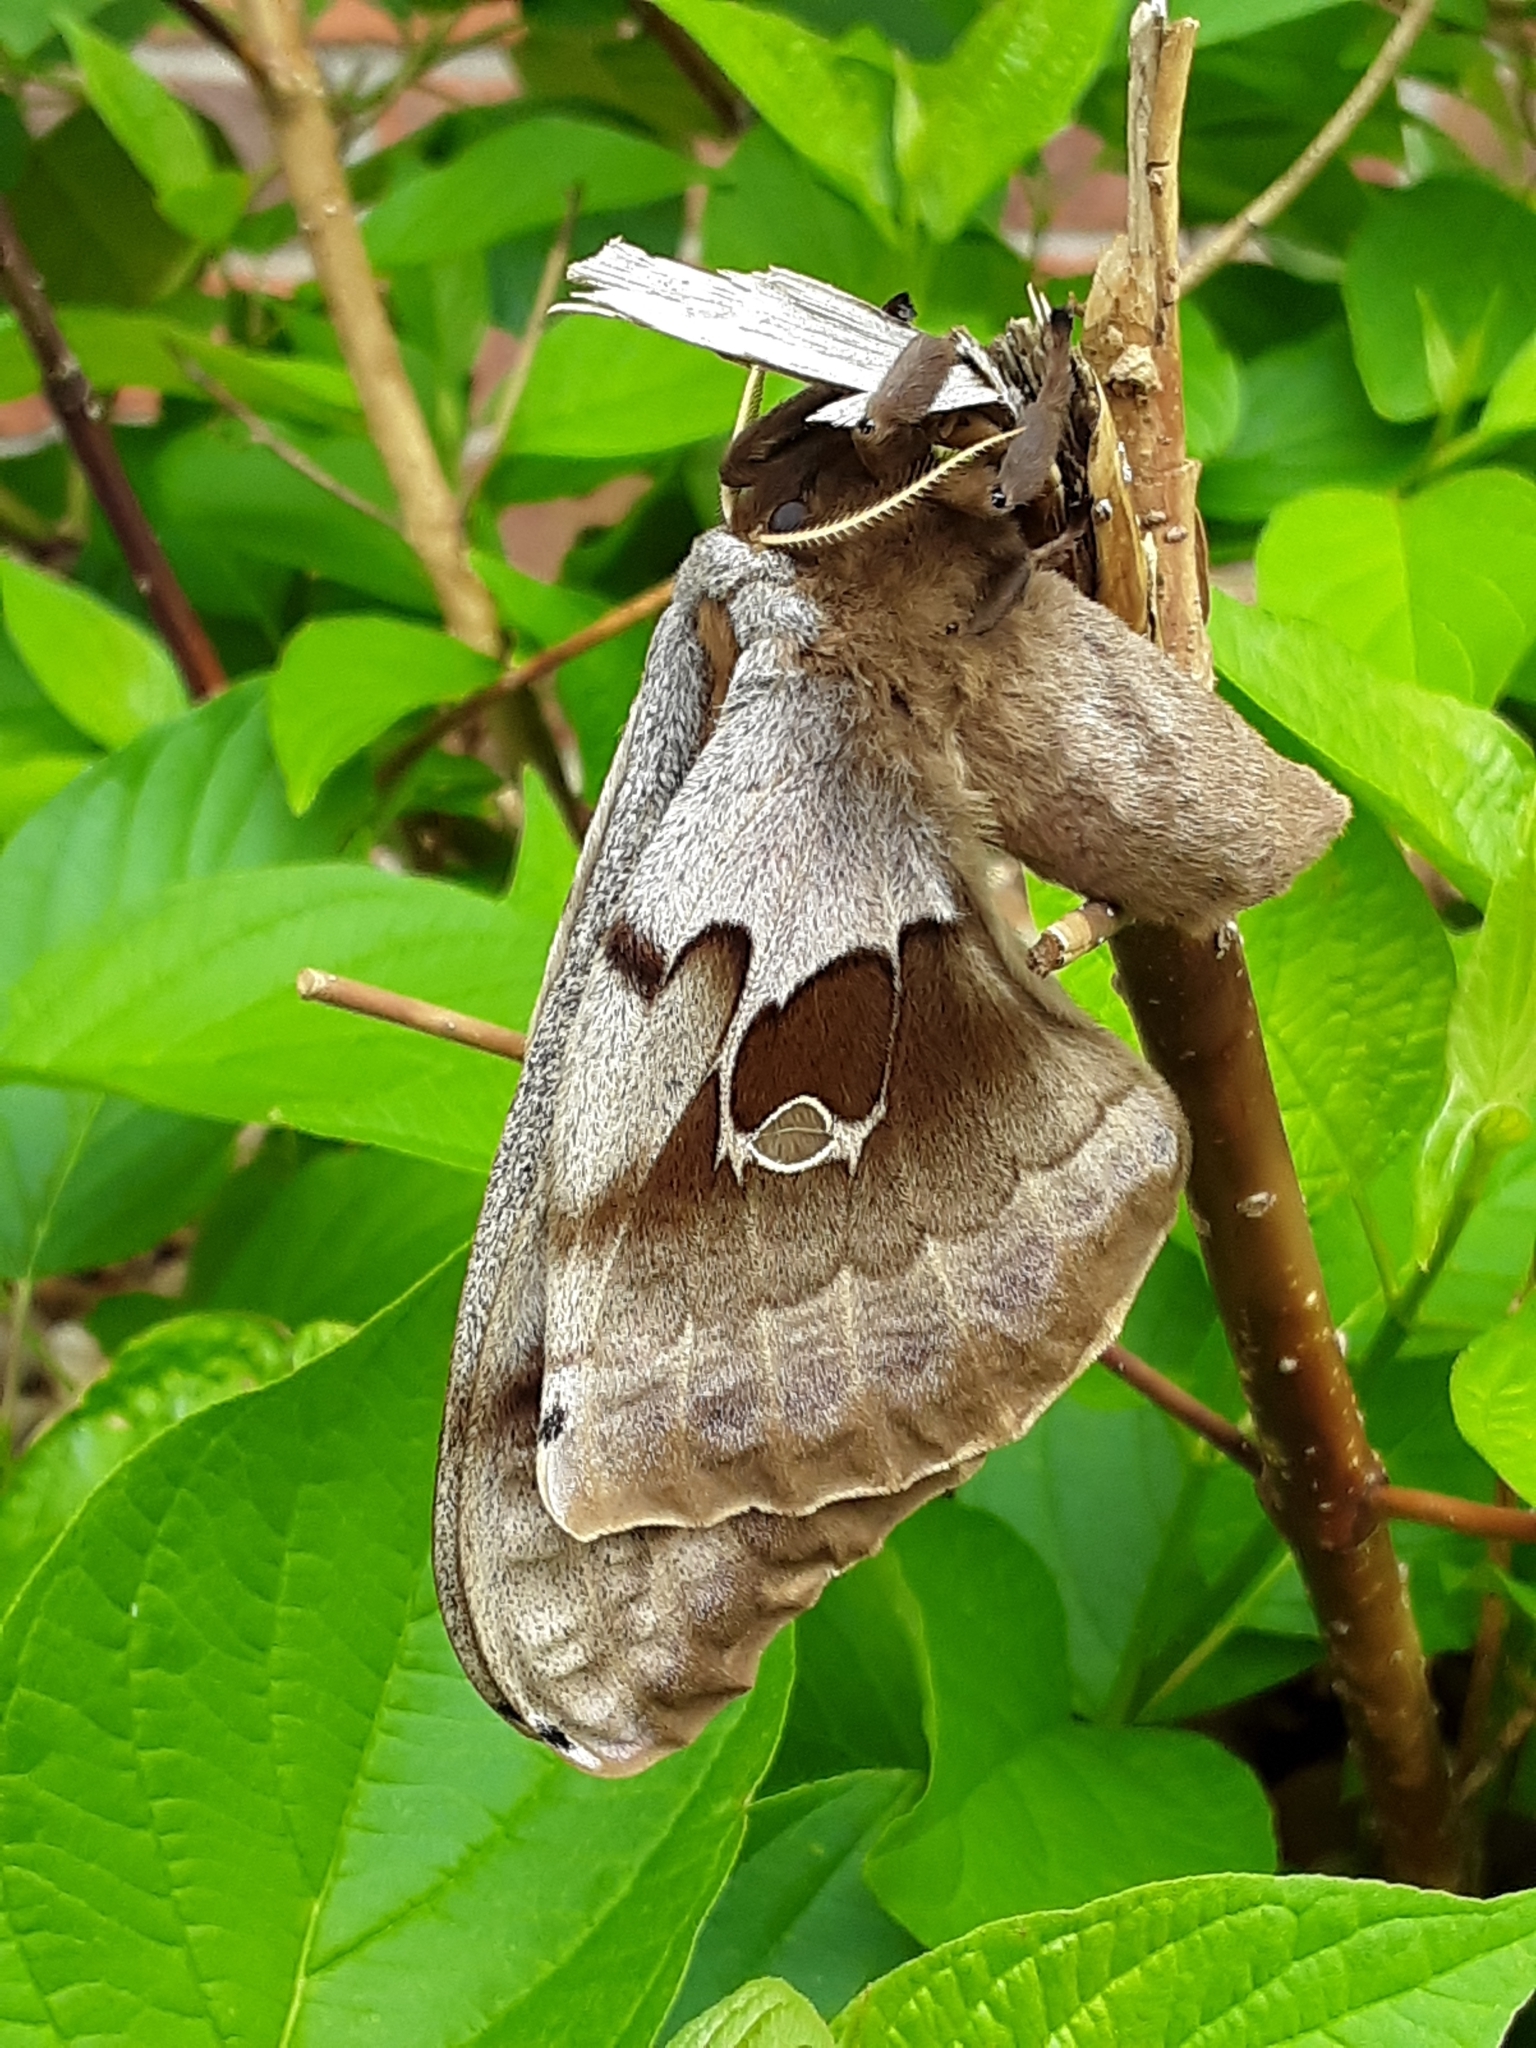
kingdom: Animalia
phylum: Arthropoda
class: Insecta
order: Lepidoptera
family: Saturniidae
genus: Antheraea
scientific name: Antheraea polyphemus
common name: Polyphemus moth
